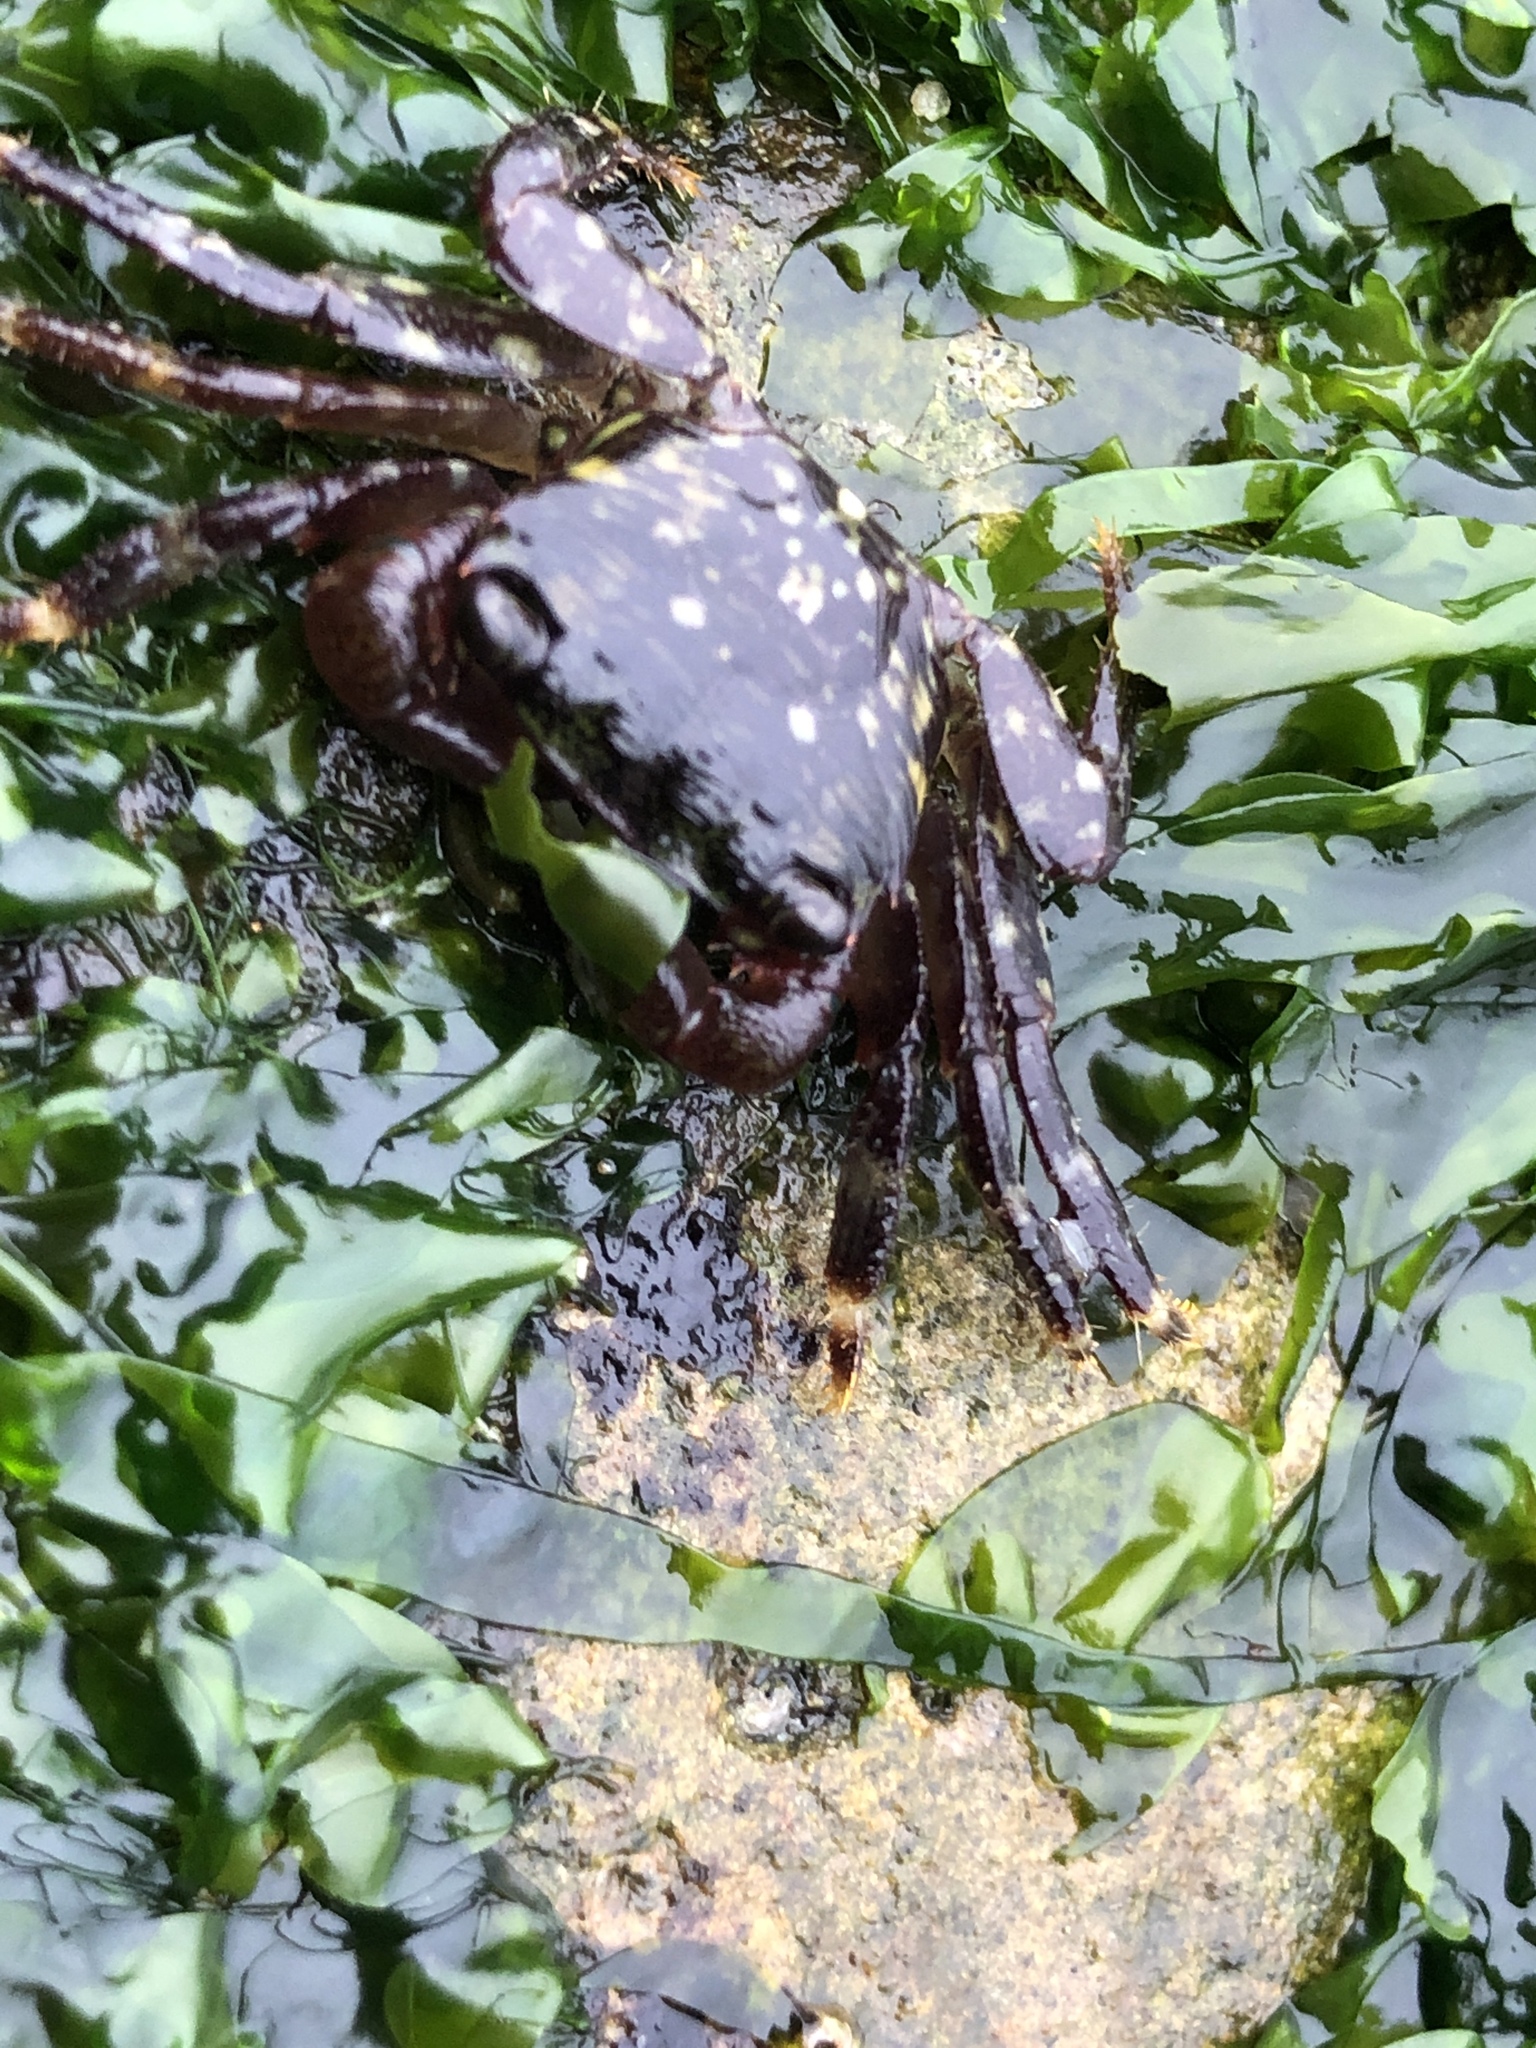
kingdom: Animalia
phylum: Arthropoda
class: Malacostraca
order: Decapoda
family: Grapsidae
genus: Pachygrapsus
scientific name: Pachygrapsus crassipes
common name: Striped shore crab
